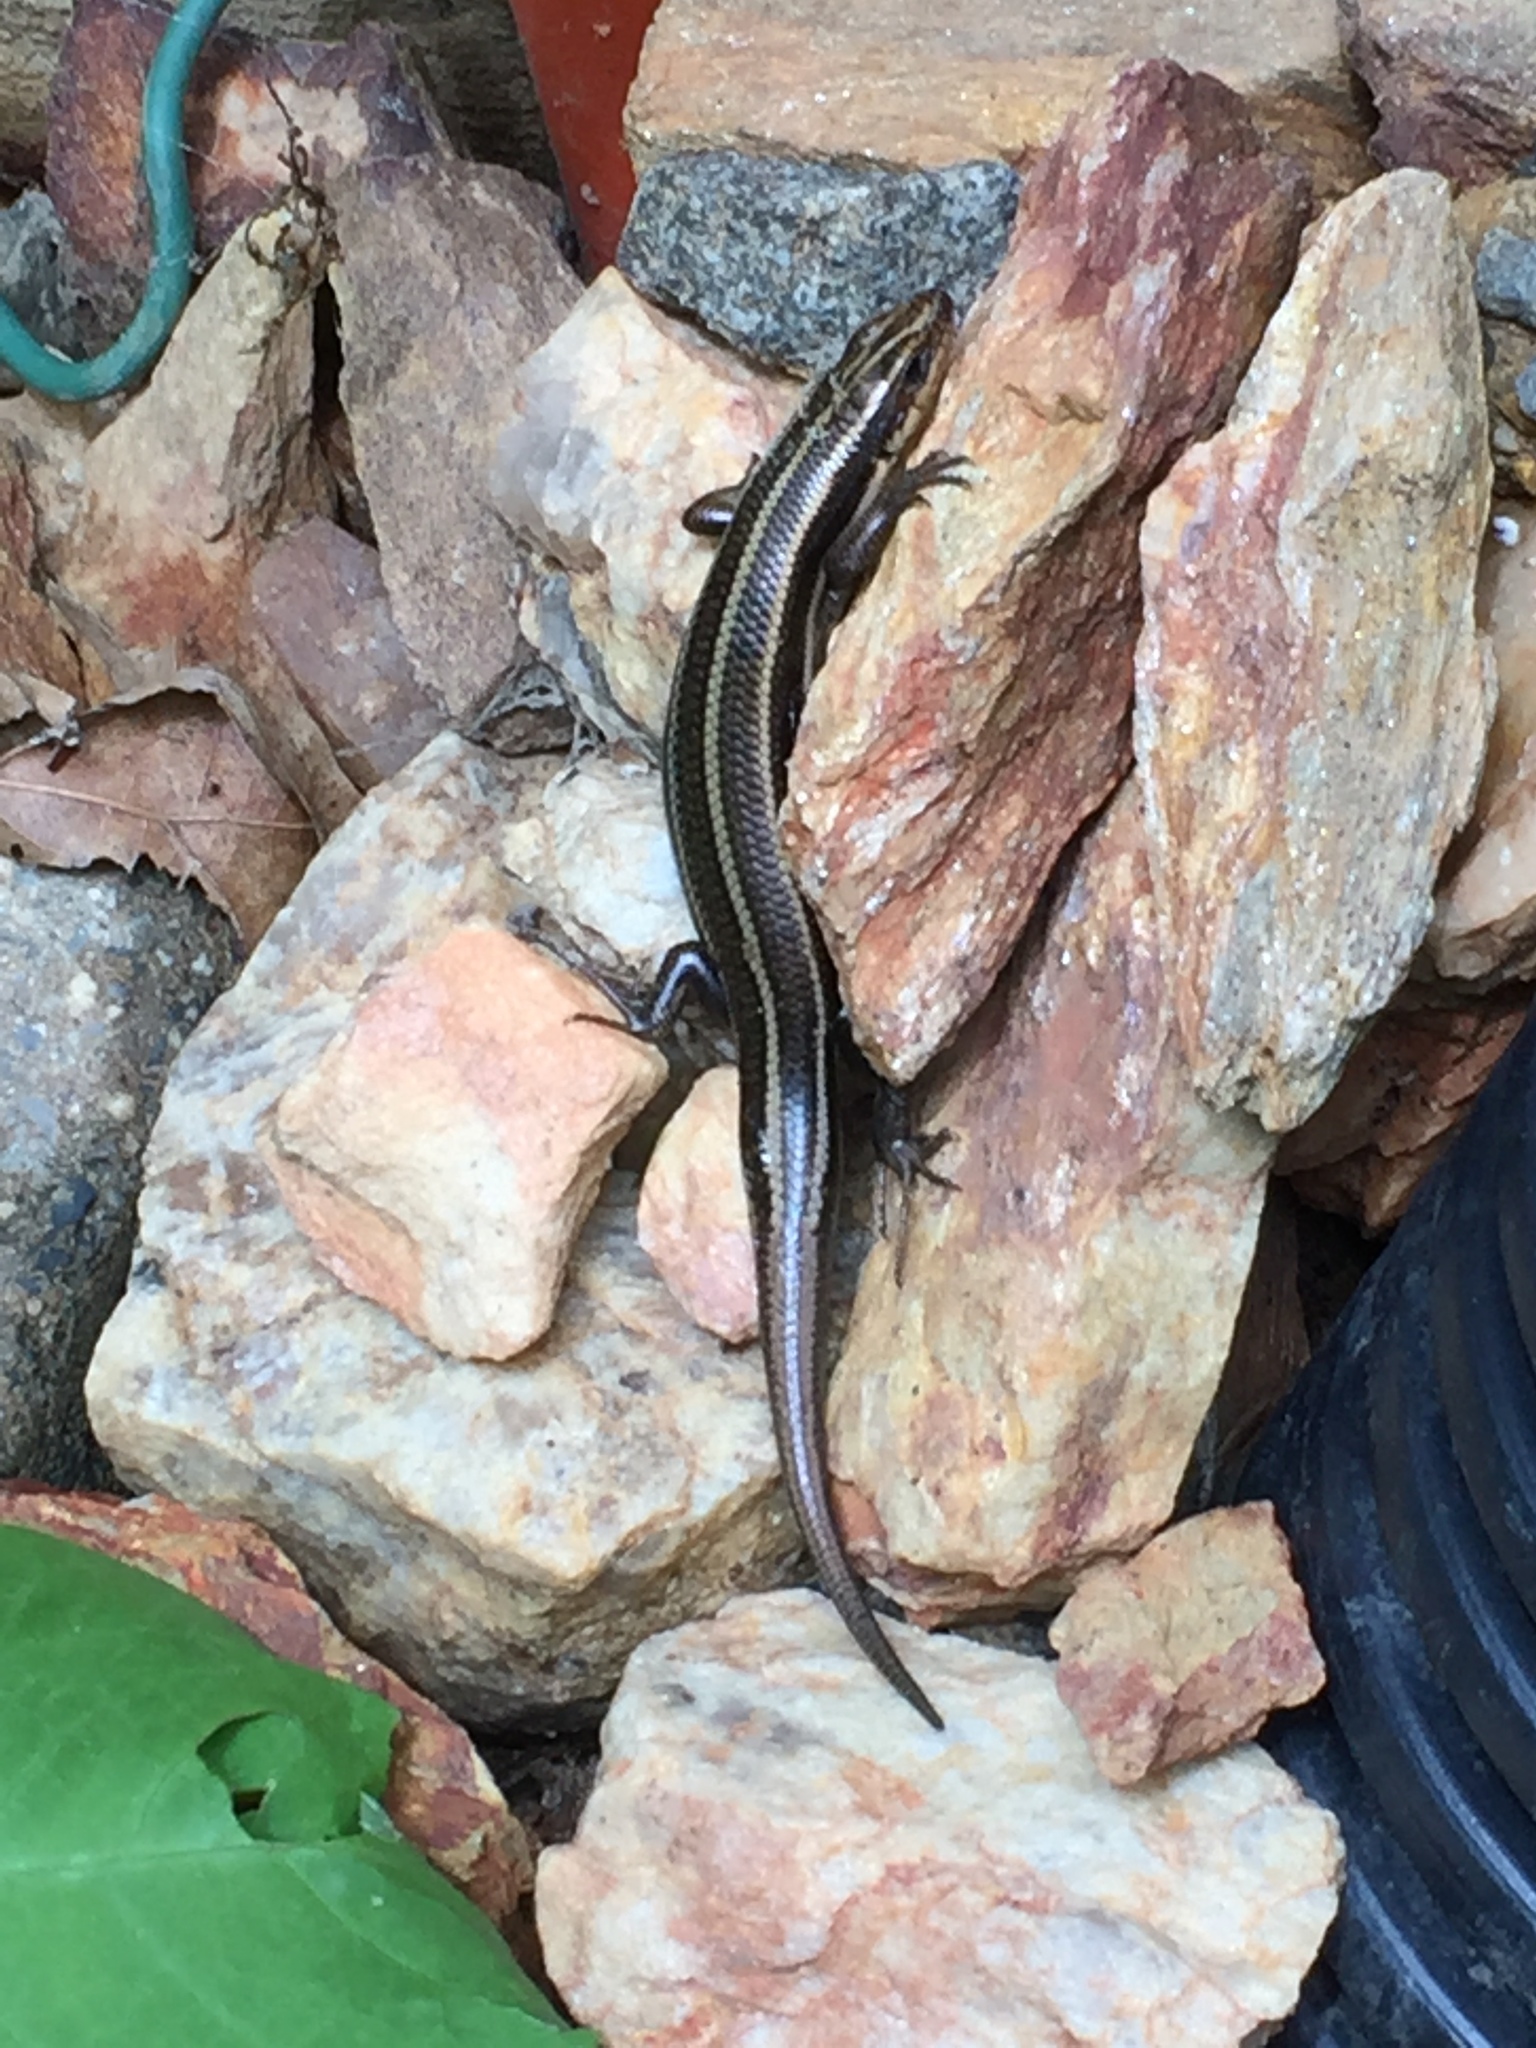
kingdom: Animalia
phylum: Chordata
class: Squamata
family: Scincidae
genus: Plestiodon
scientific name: Plestiodon fasciatus
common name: Five-lined skink
